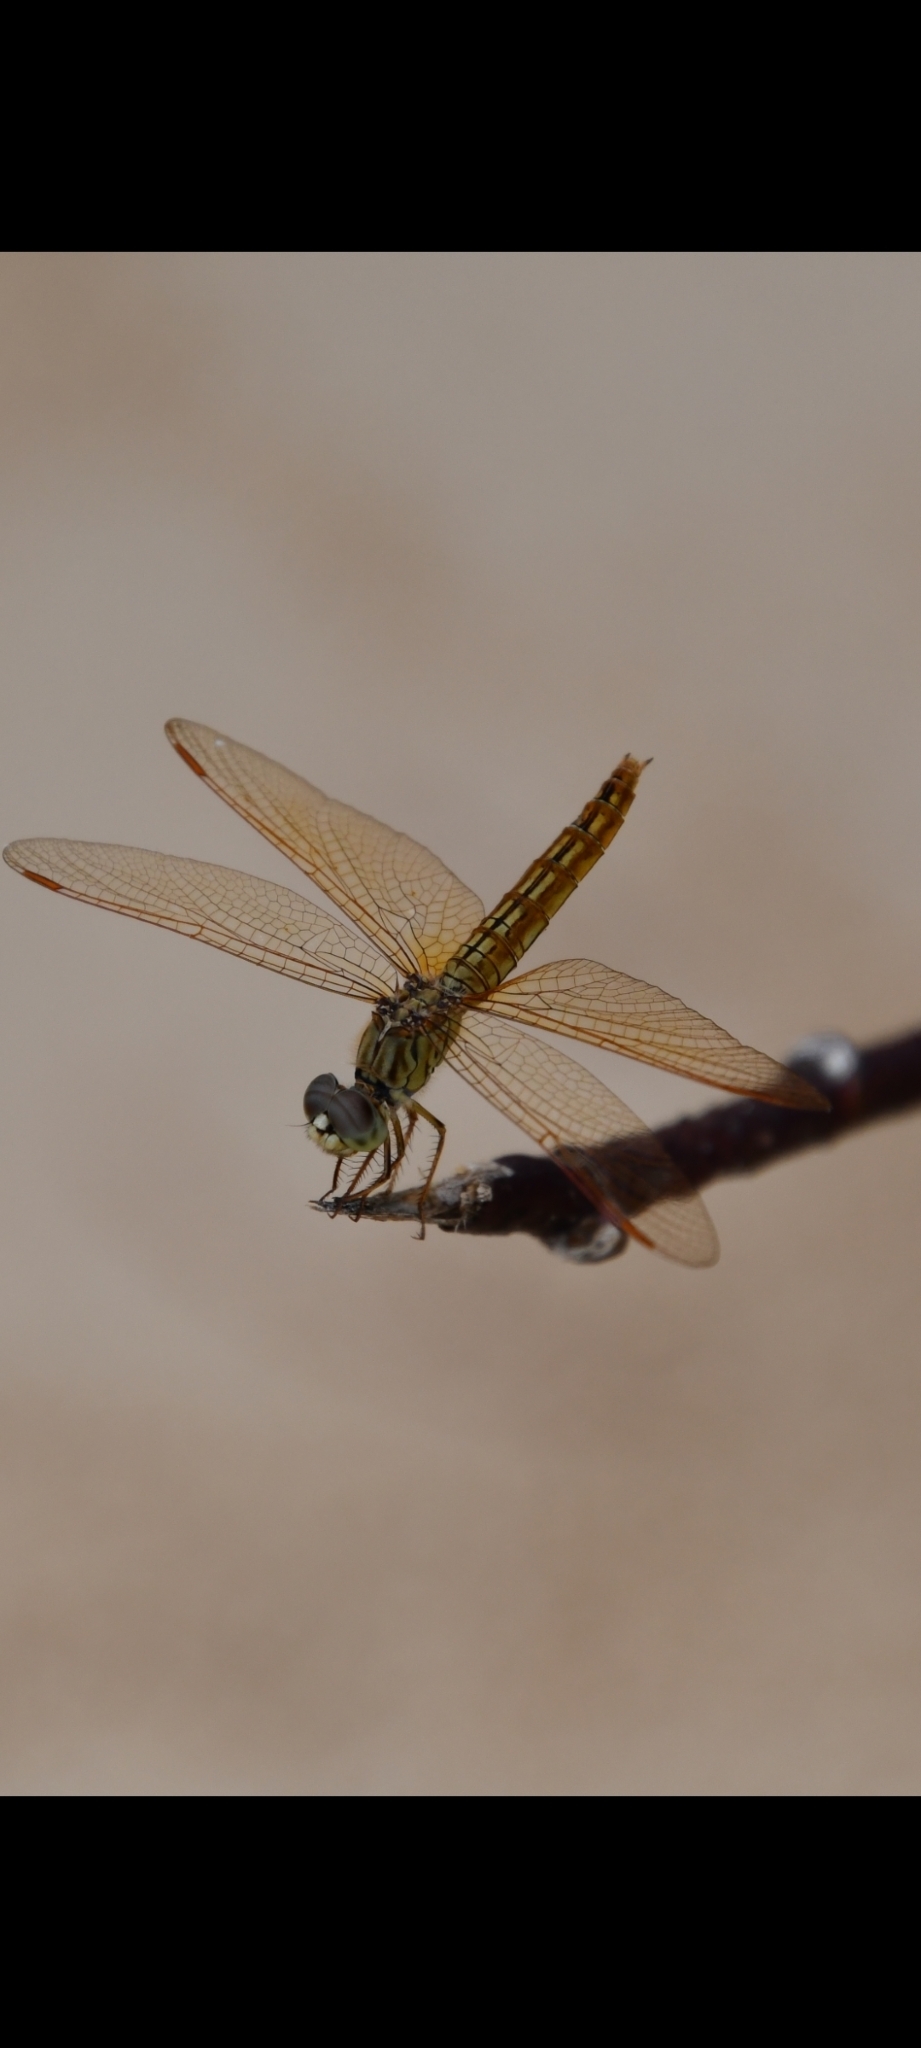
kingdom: Animalia
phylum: Arthropoda
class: Insecta
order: Odonata
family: Libellulidae
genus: Brachythemis
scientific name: Brachythemis contaminata
